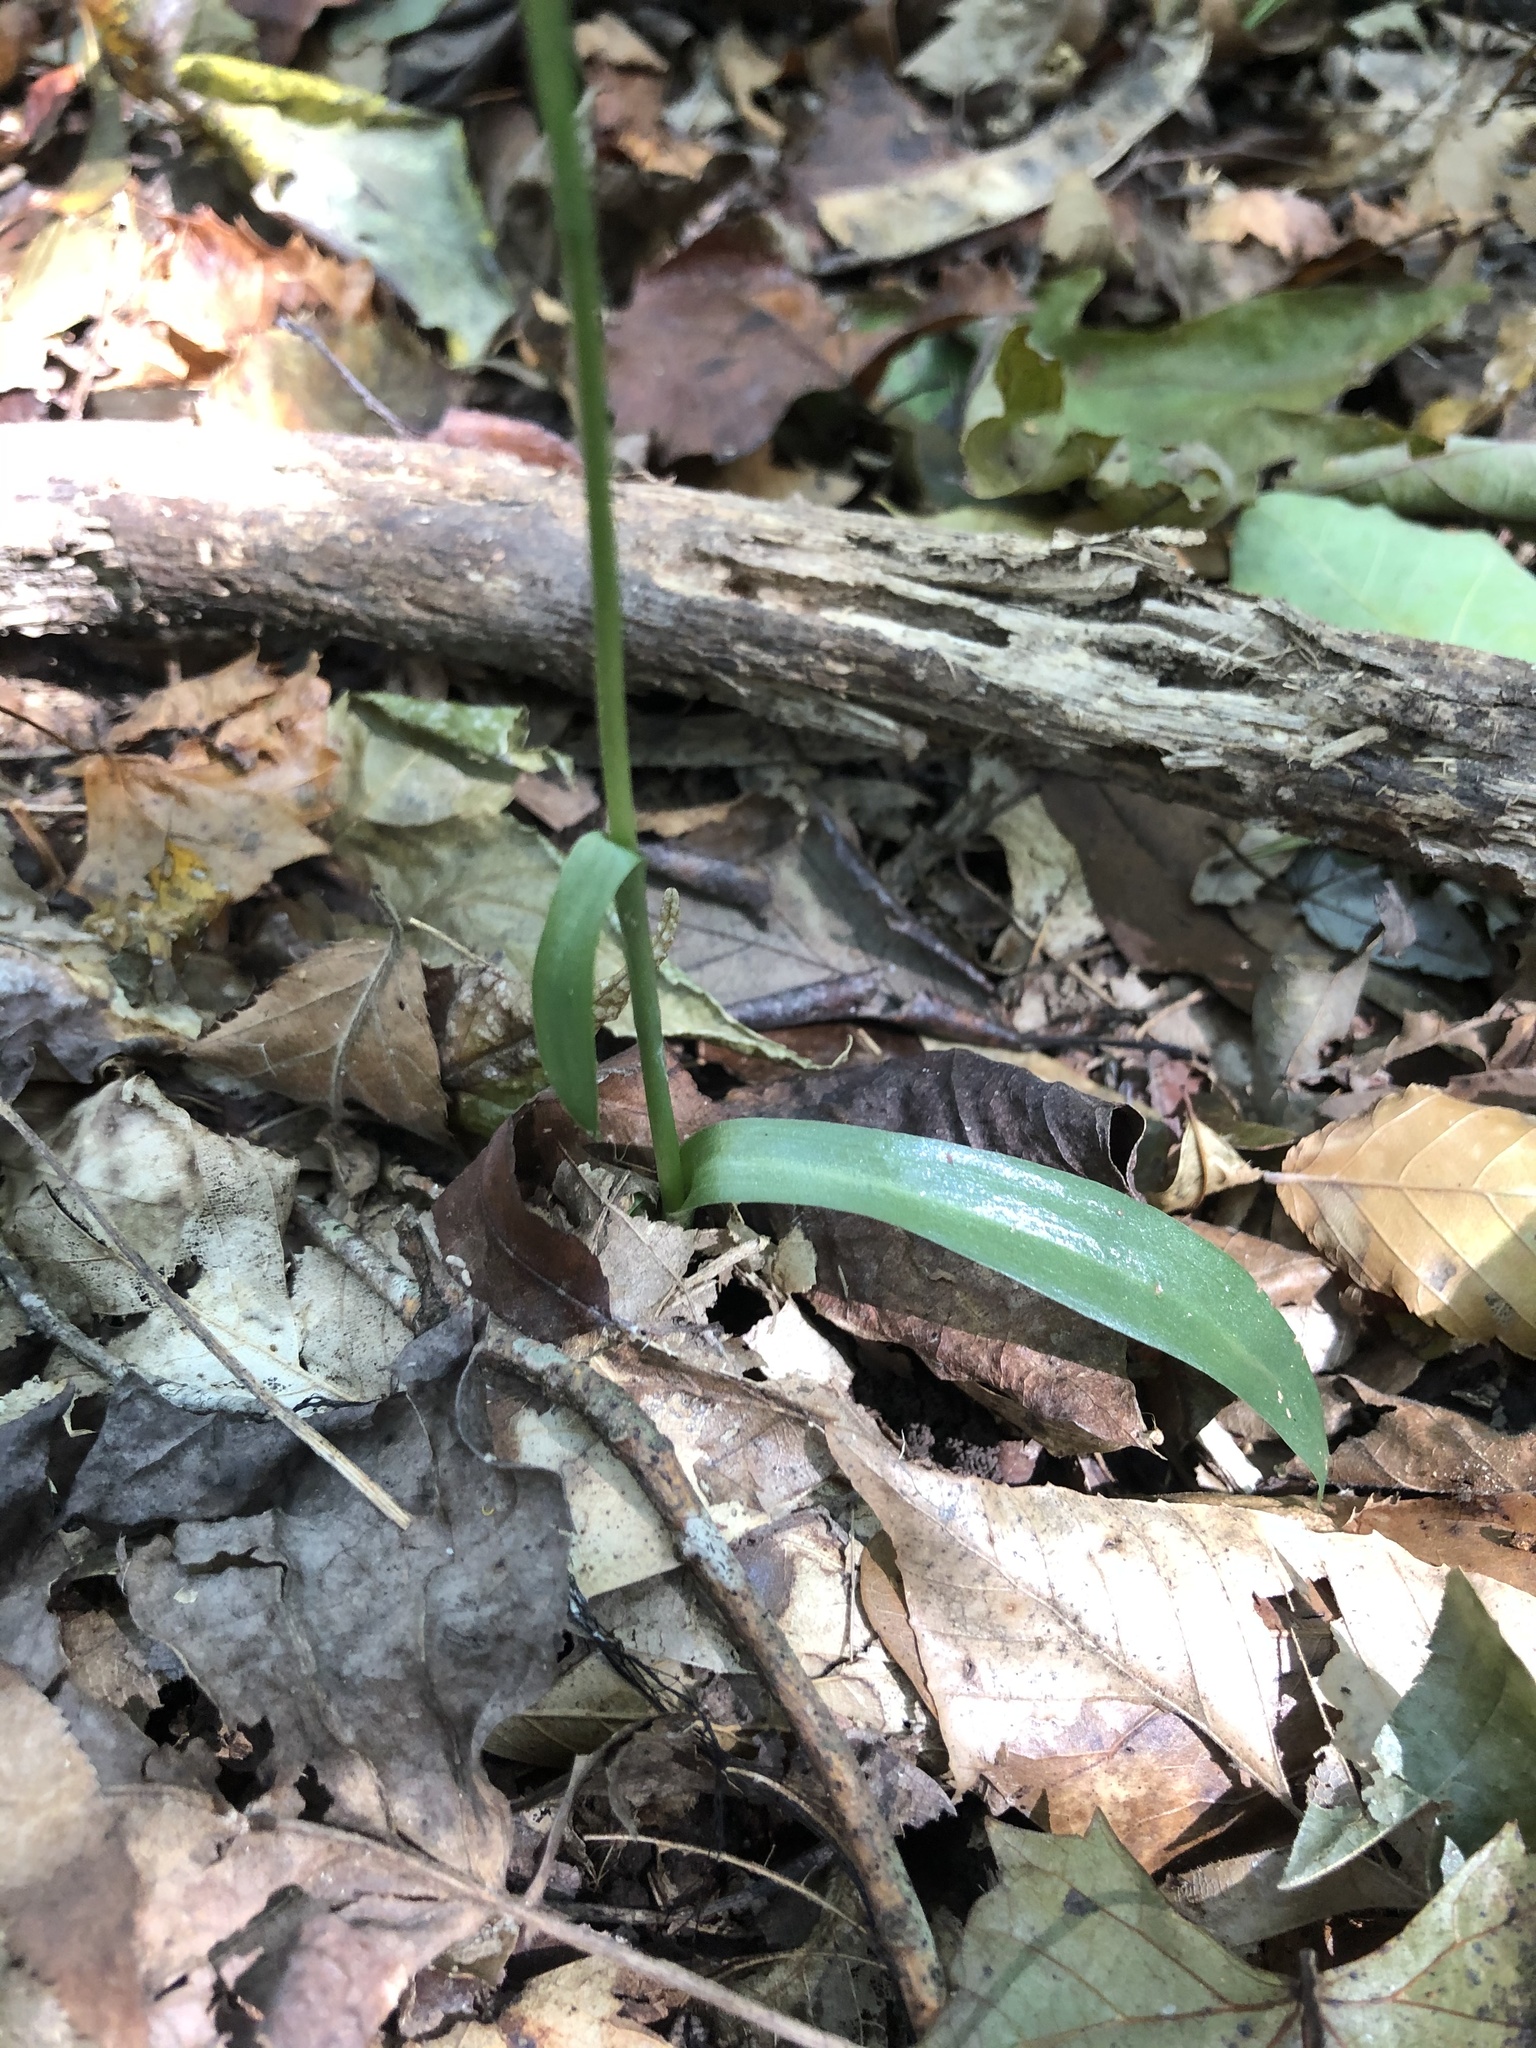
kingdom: Plantae
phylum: Tracheophyta
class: Liliopsida
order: Asparagales
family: Orchidaceae
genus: Spiranthes
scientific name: Spiranthes ovalis
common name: October ladies'-tresses
